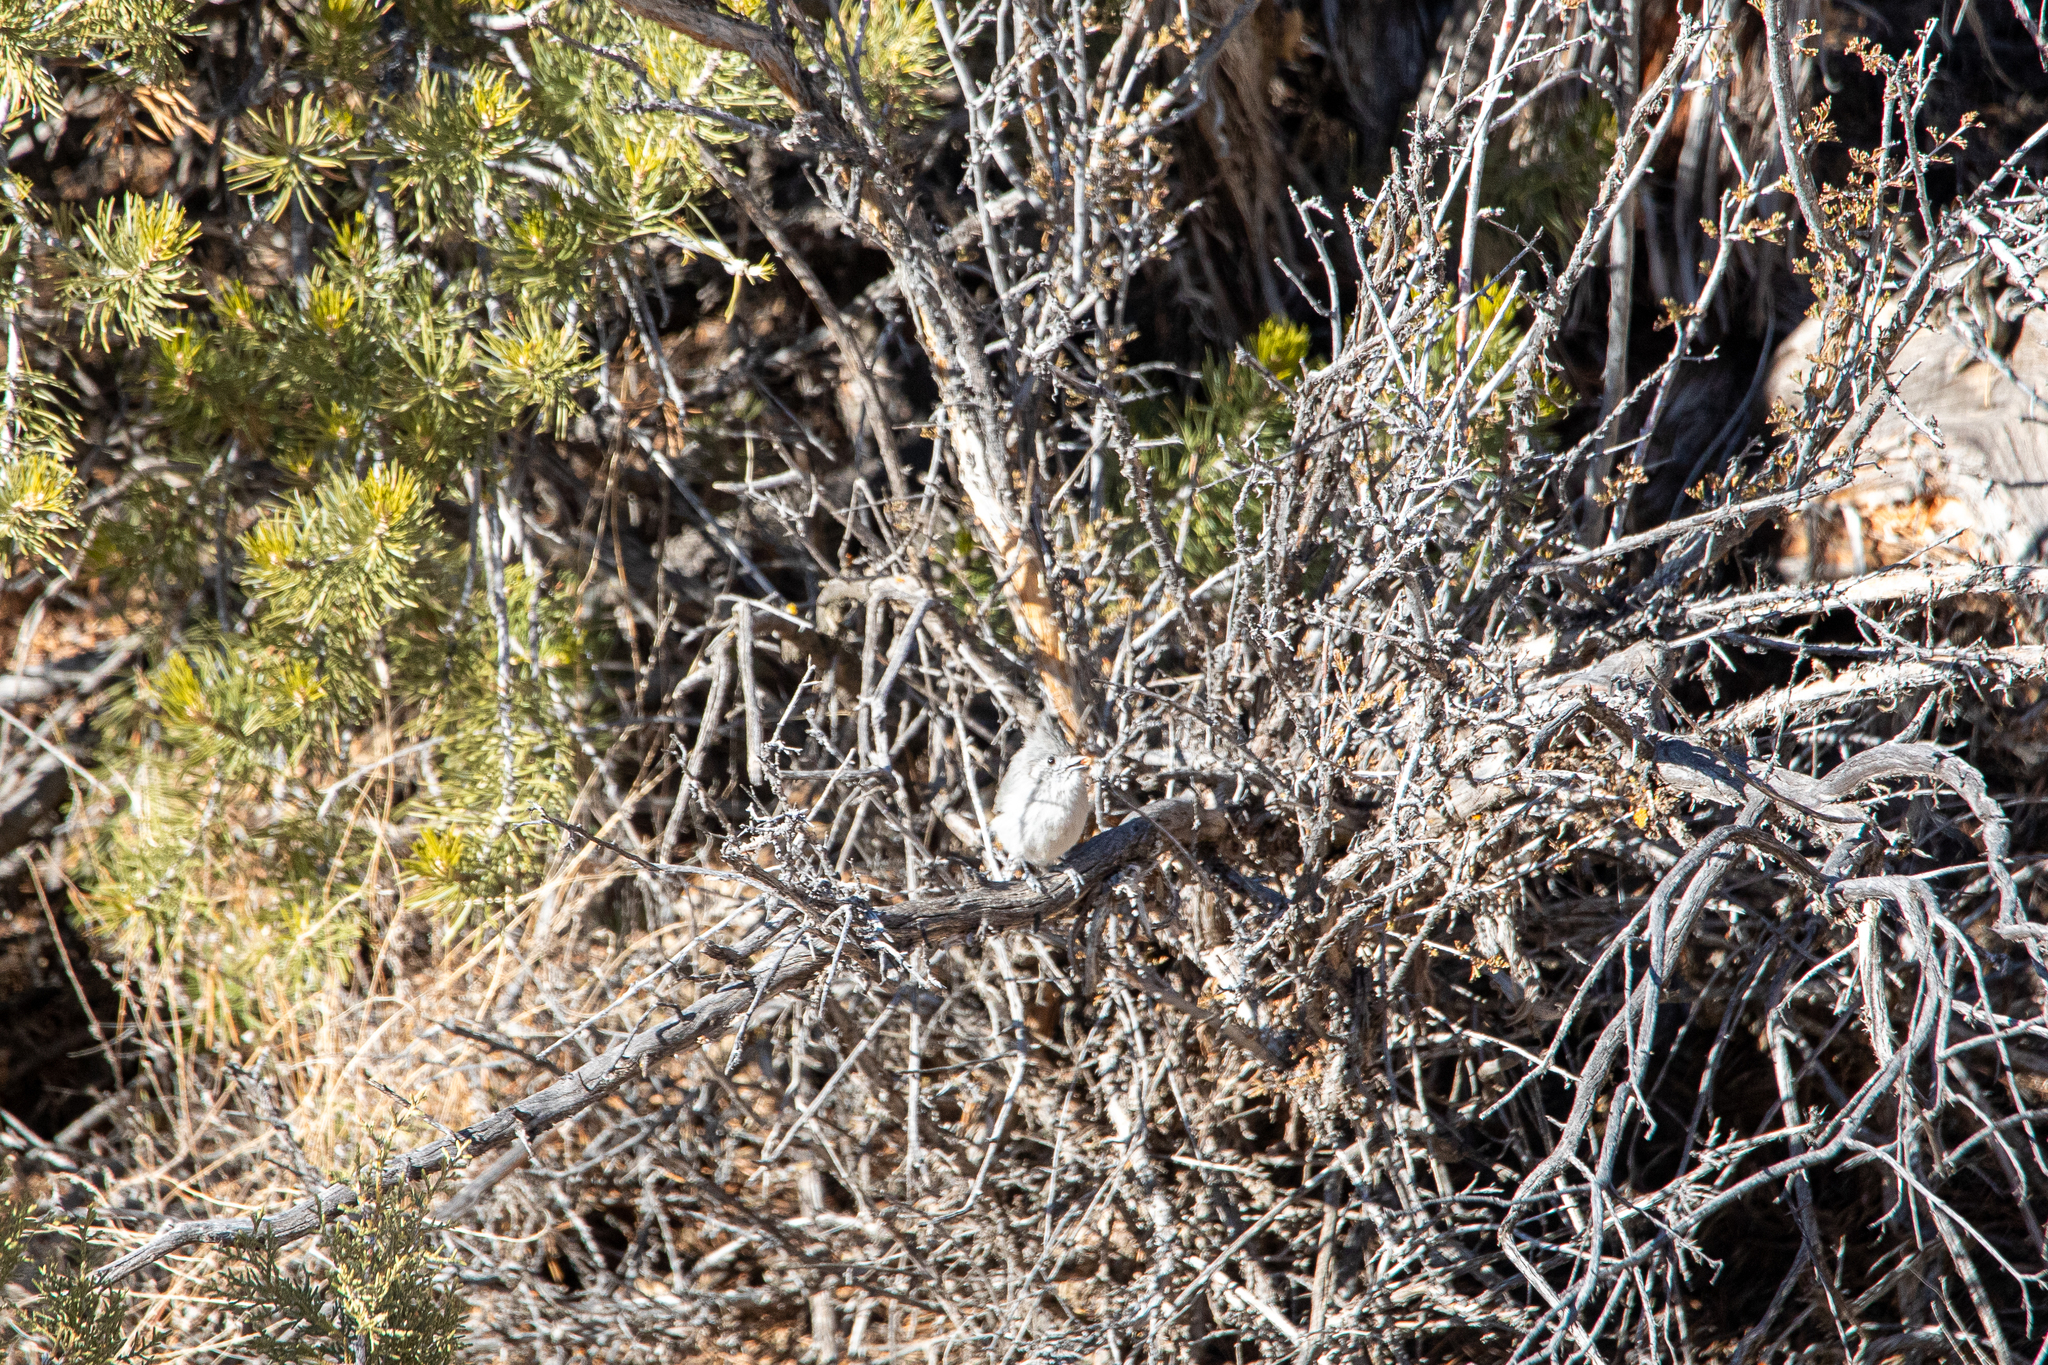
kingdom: Animalia
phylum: Chordata
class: Aves
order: Passeriformes
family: Paridae
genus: Baeolophus
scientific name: Baeolophus ridgwayi
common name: Juniper titmouse
